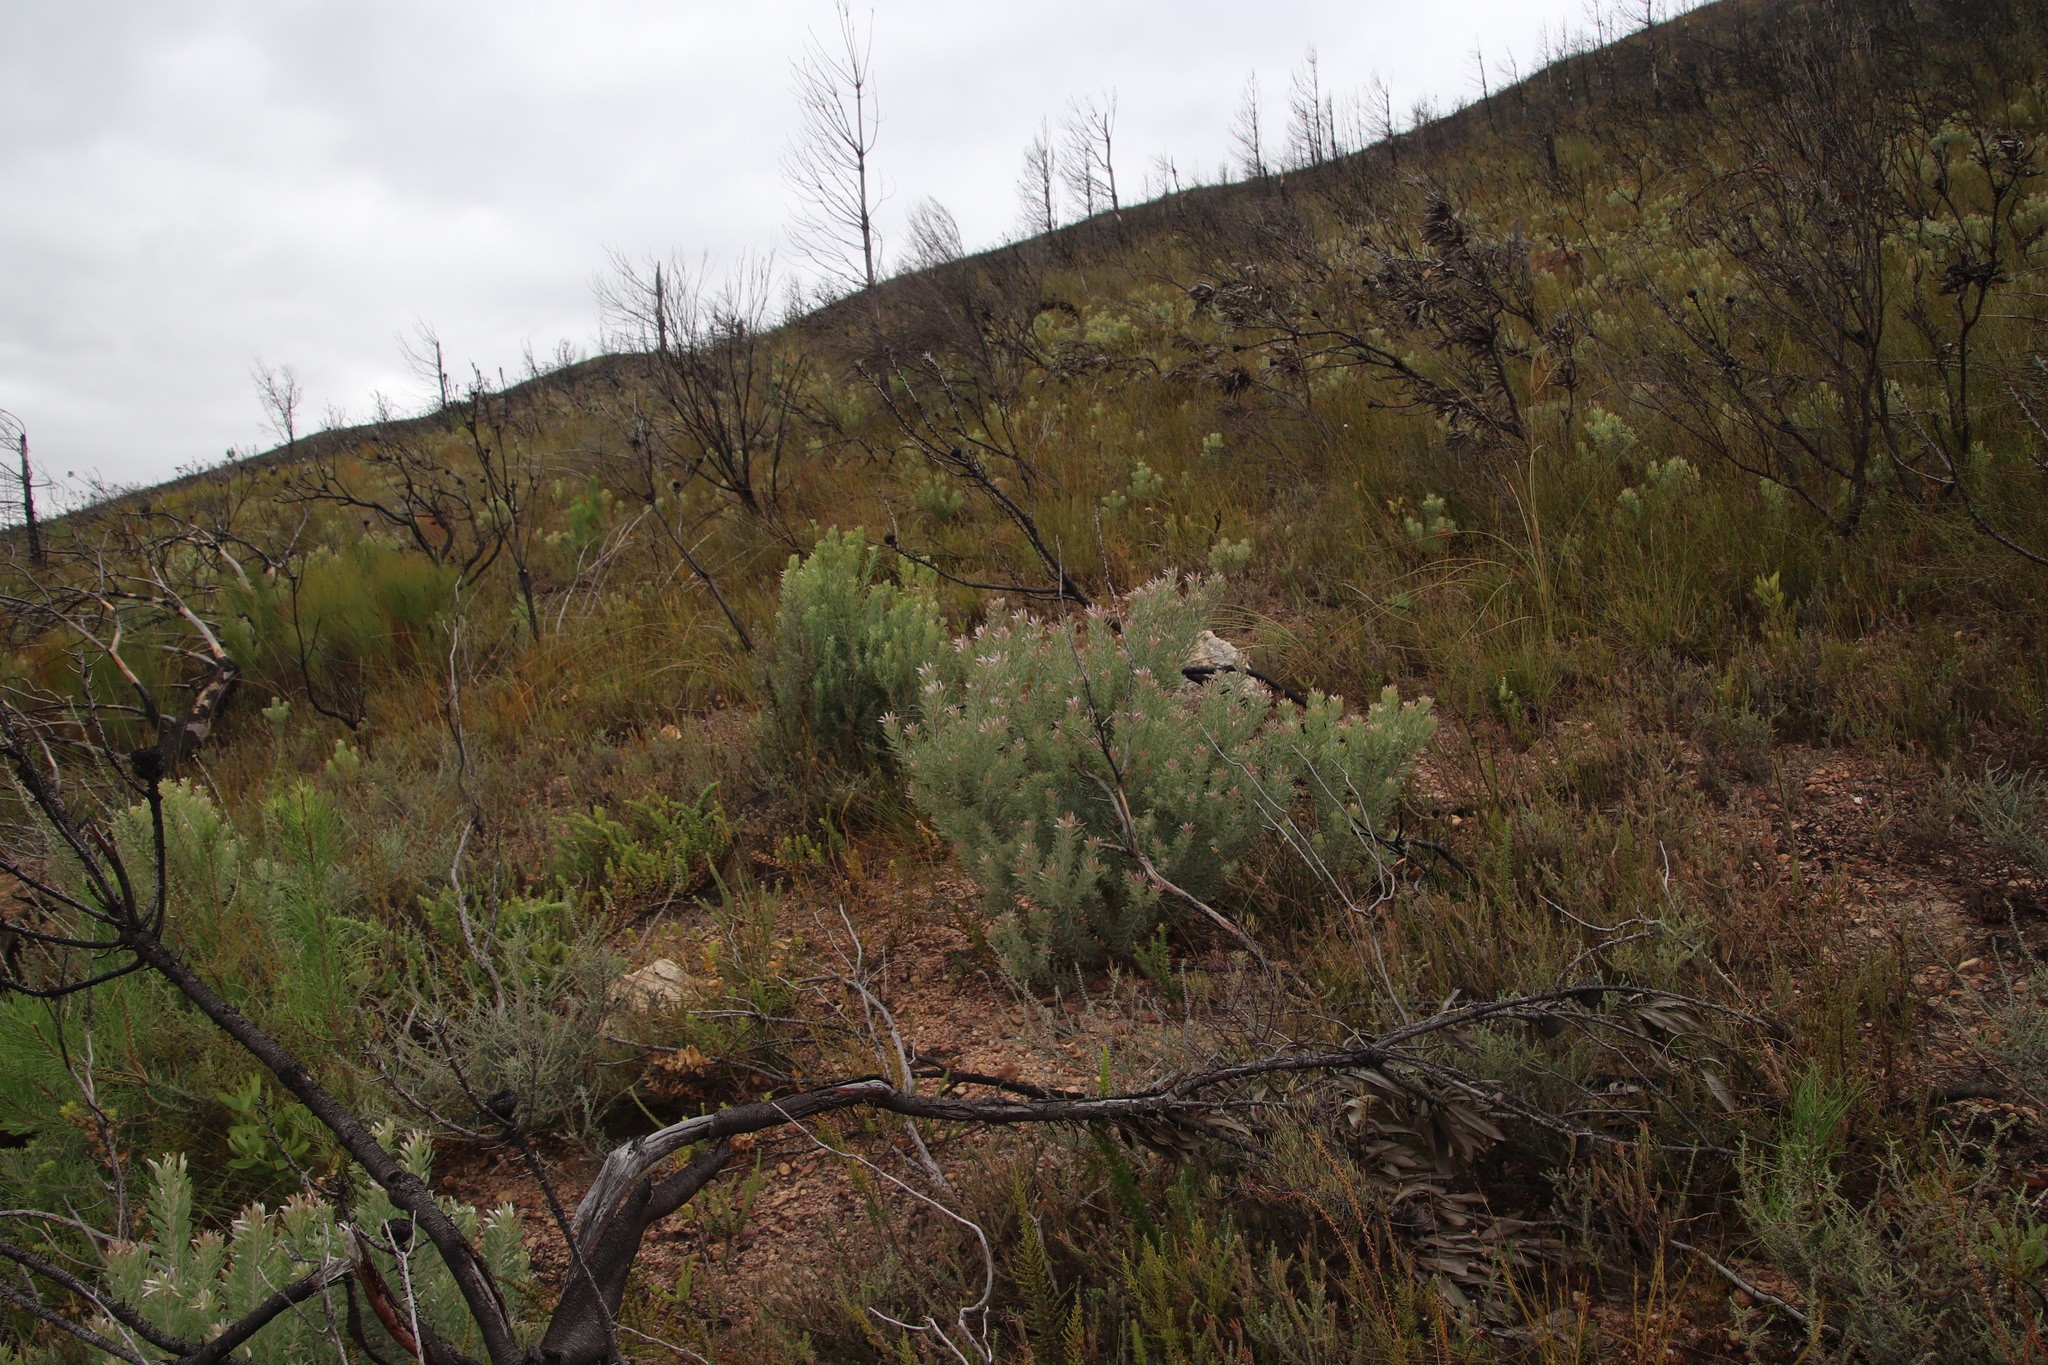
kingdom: Plantae
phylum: Tracheophyta
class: Magnoliopsida
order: Proteales
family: Proteaceae
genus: Leucadendron
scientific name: Leucadendron rubrum
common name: Spinning top
